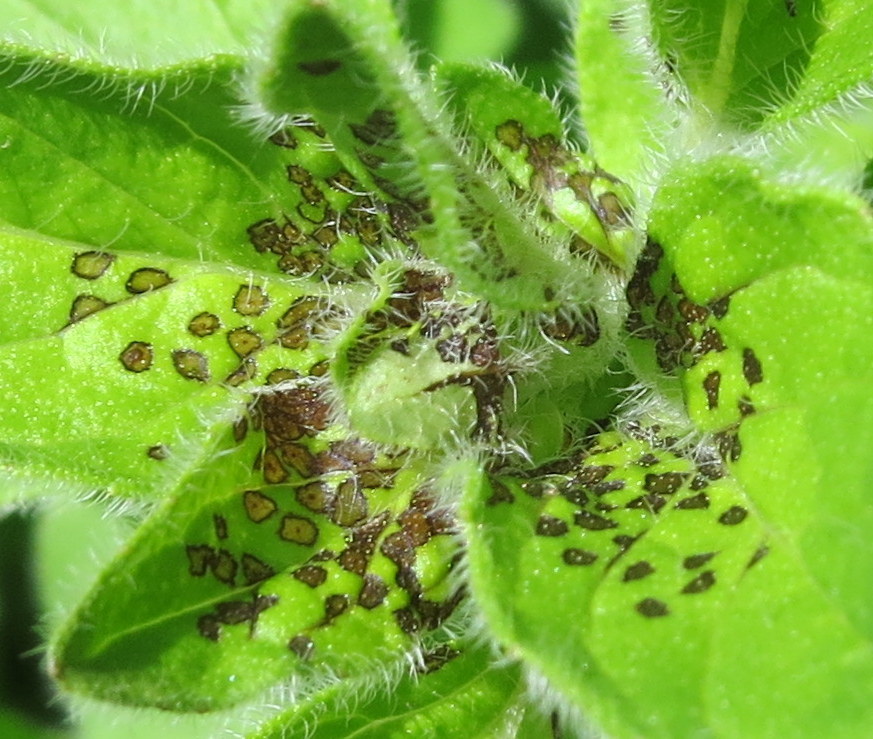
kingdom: Animalia
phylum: Arthropoda
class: Insecta
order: Hemiptera
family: Miridae
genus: Poecilocapsus
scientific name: Poecilocapsus lineatus
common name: Four-lined plant bug
